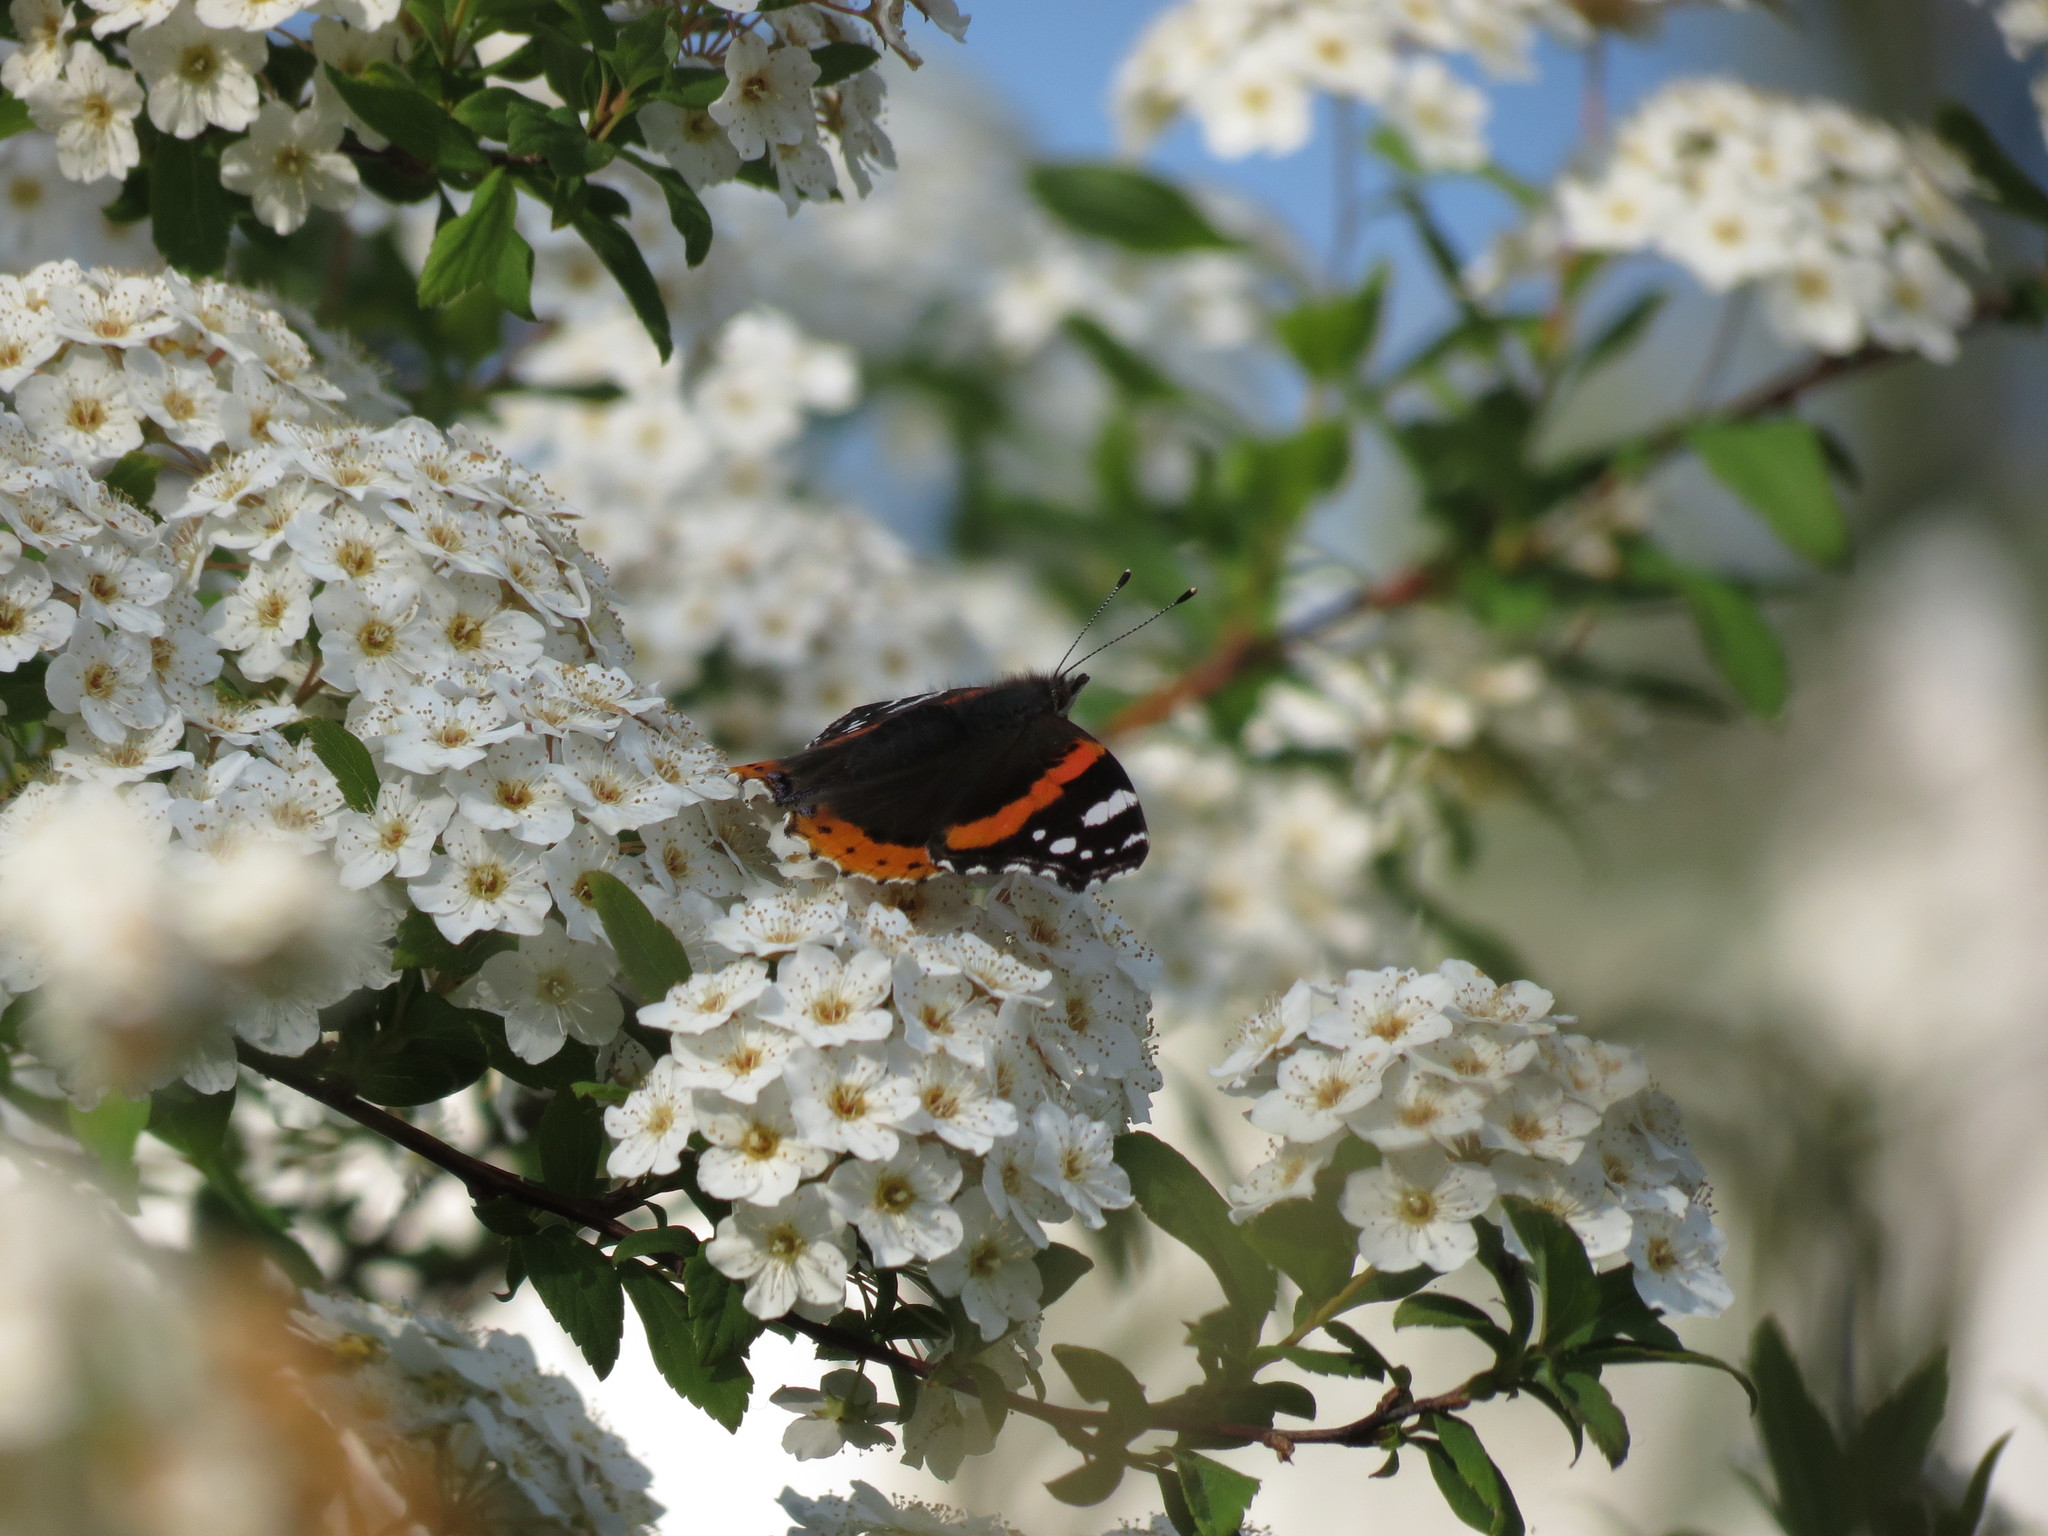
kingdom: Animalia
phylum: Arthropoda
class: Insecta
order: Lepidoptera
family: Nymphalidae
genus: Vanessa
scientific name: Vanessa atalanta
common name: Red admiral
